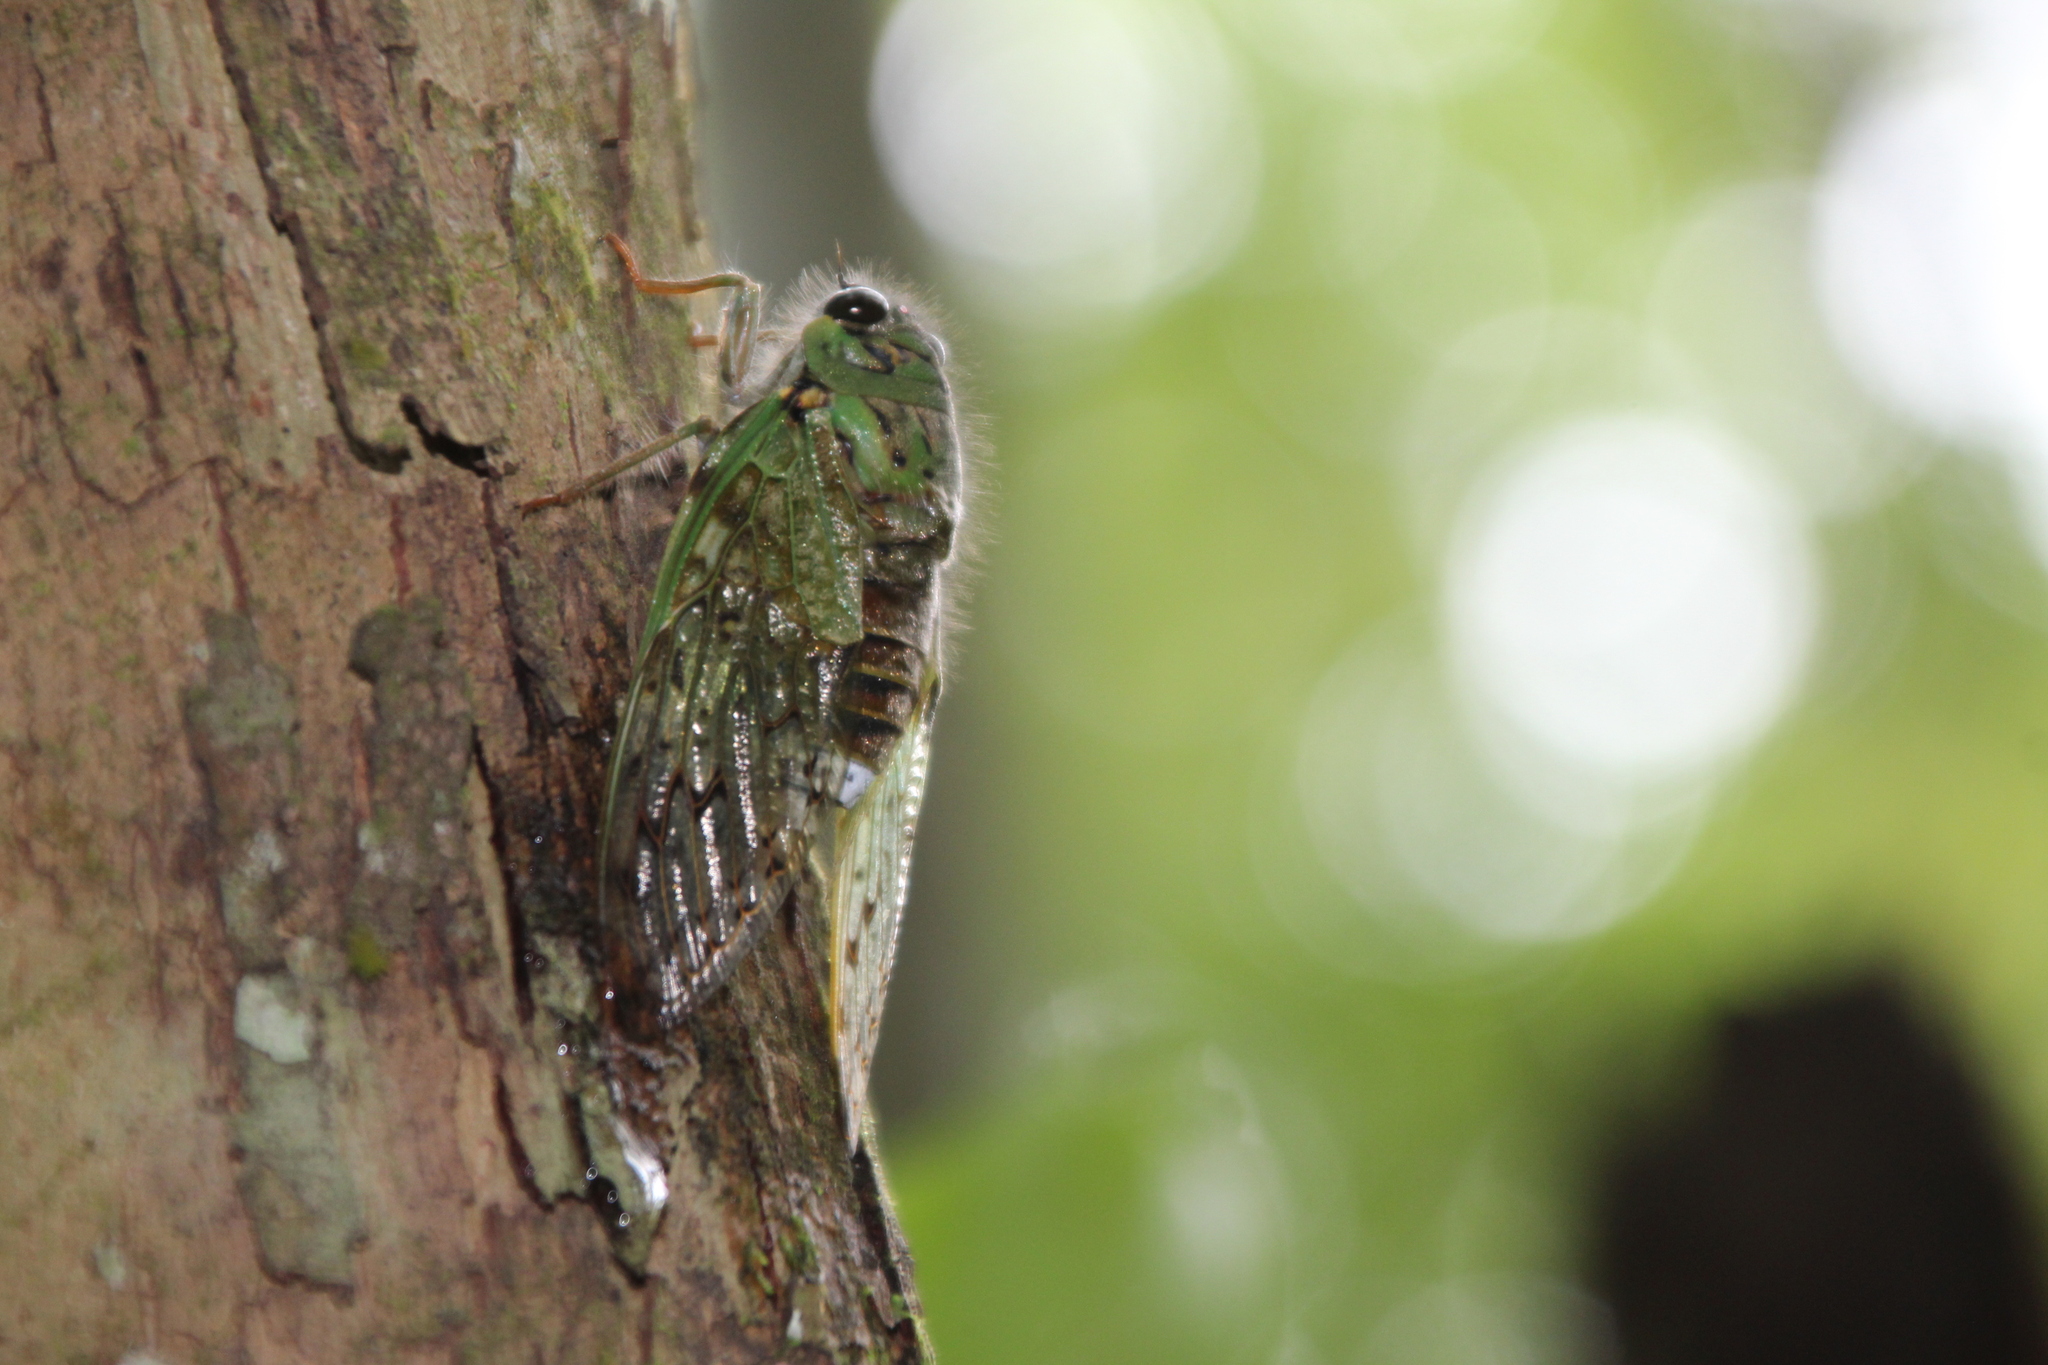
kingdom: Animalia
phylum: Arthropoda
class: Insecta
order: Hemiptera
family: Cicadidae
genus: Dyticopycna
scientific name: Dyticopycna semiclara
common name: Whining forest cicada
